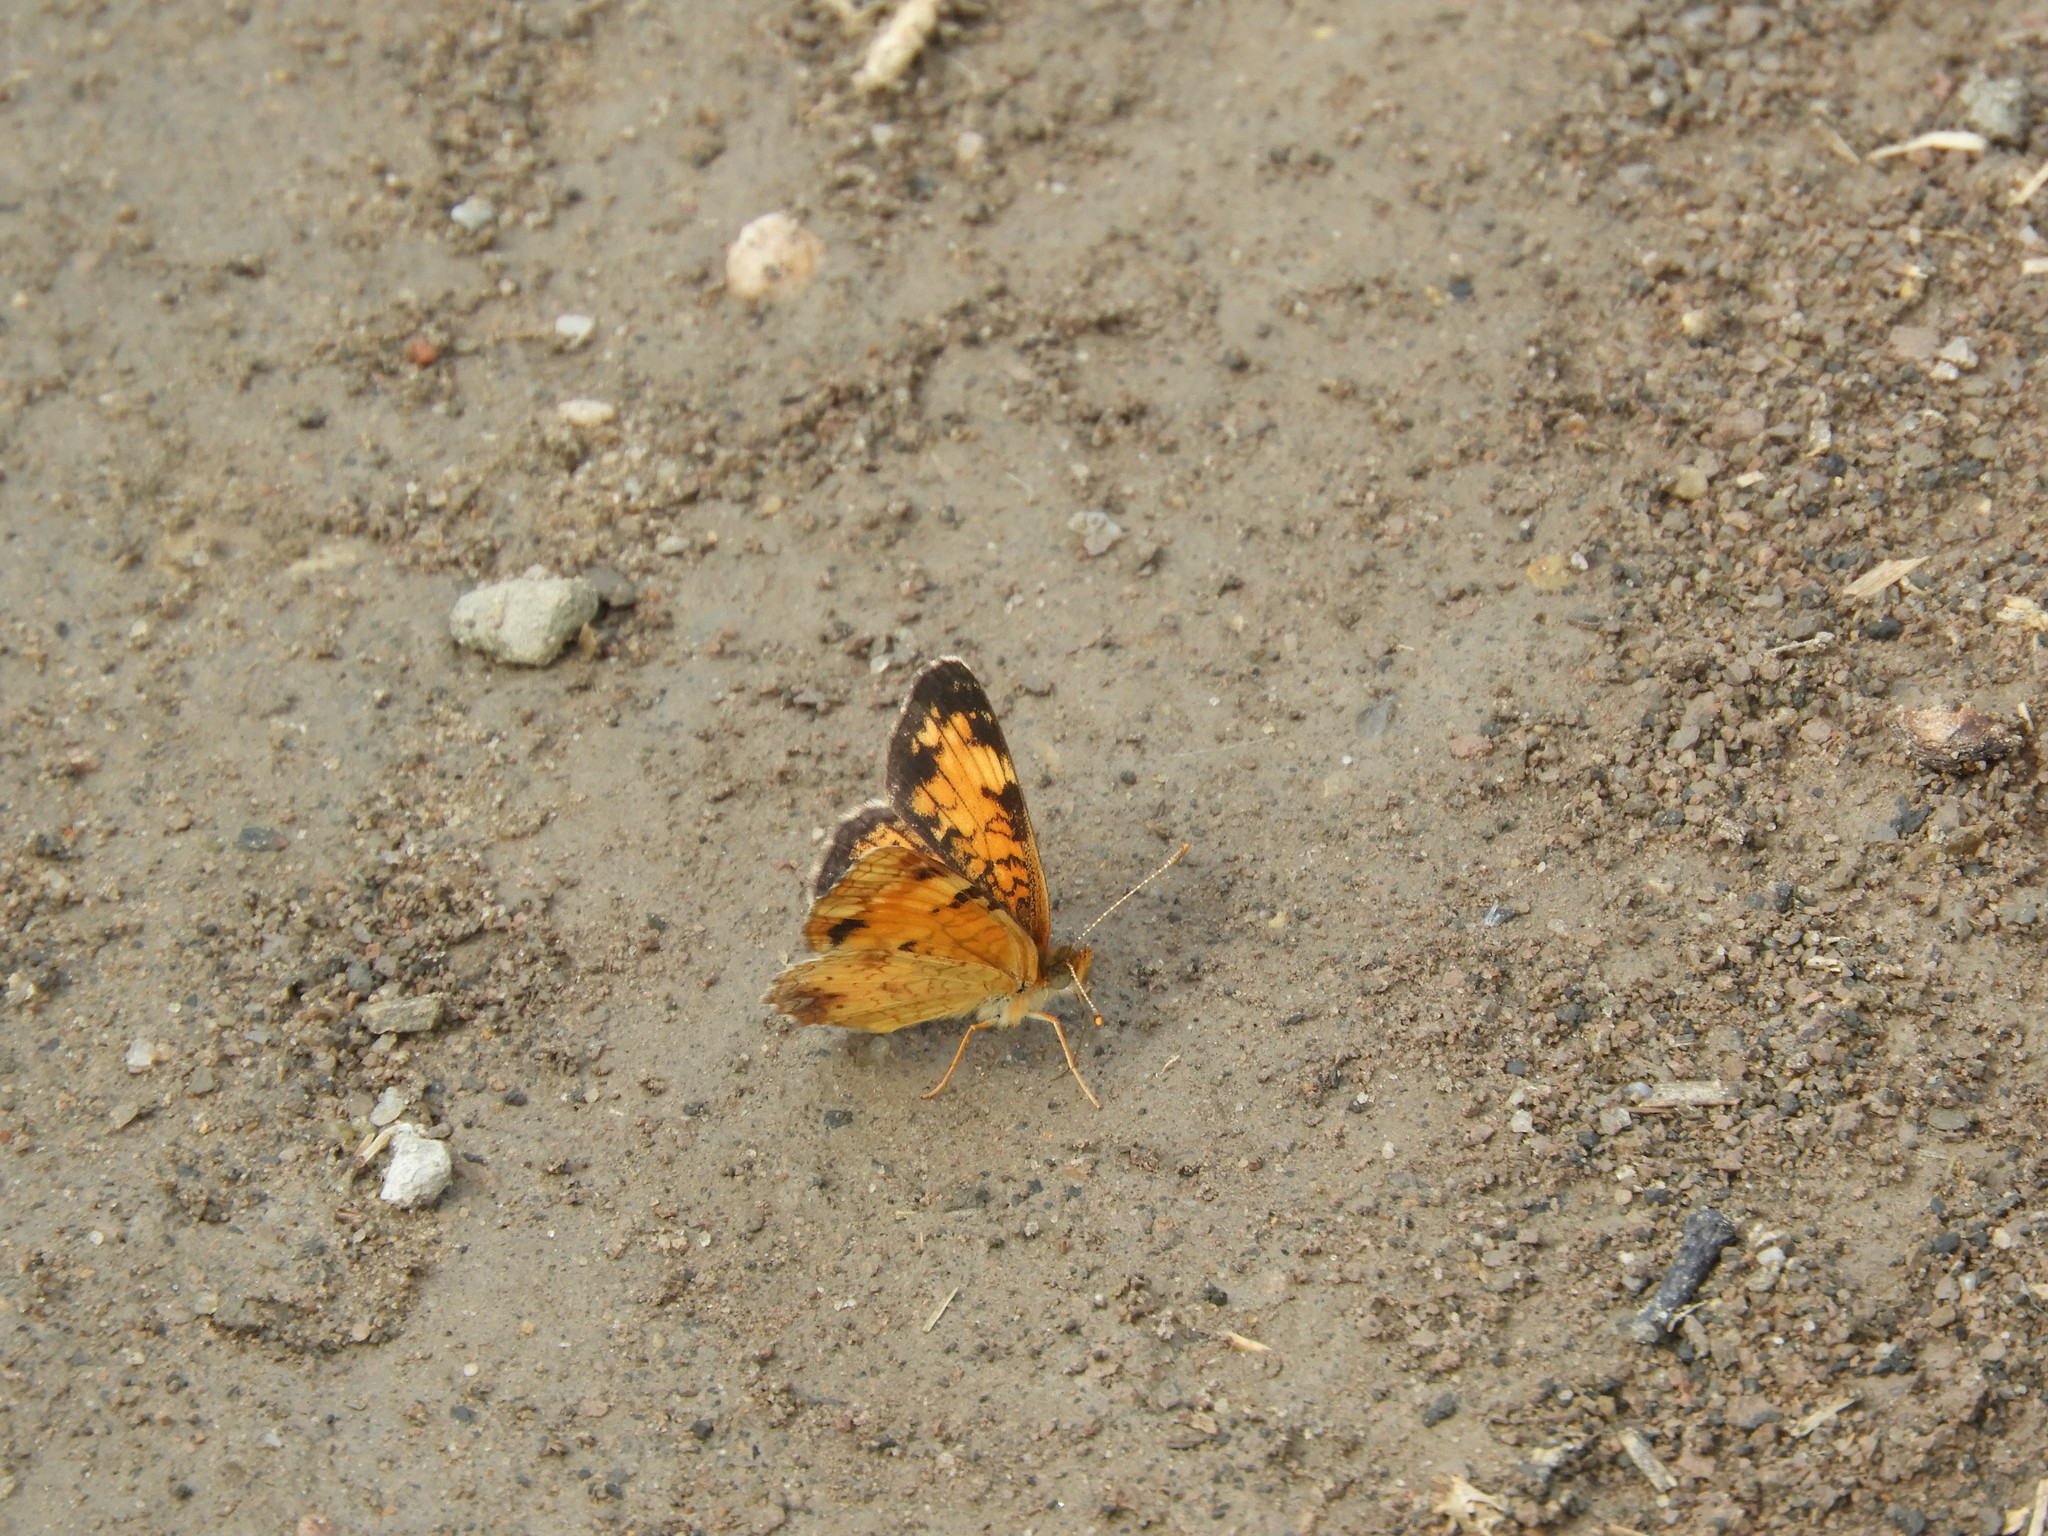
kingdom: Animalia
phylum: Arthropoda
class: Insecta
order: Lepidoptera
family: Nymphalidae
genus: Phyciodes
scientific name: Phyciodes tharos
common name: Pearl crescent
